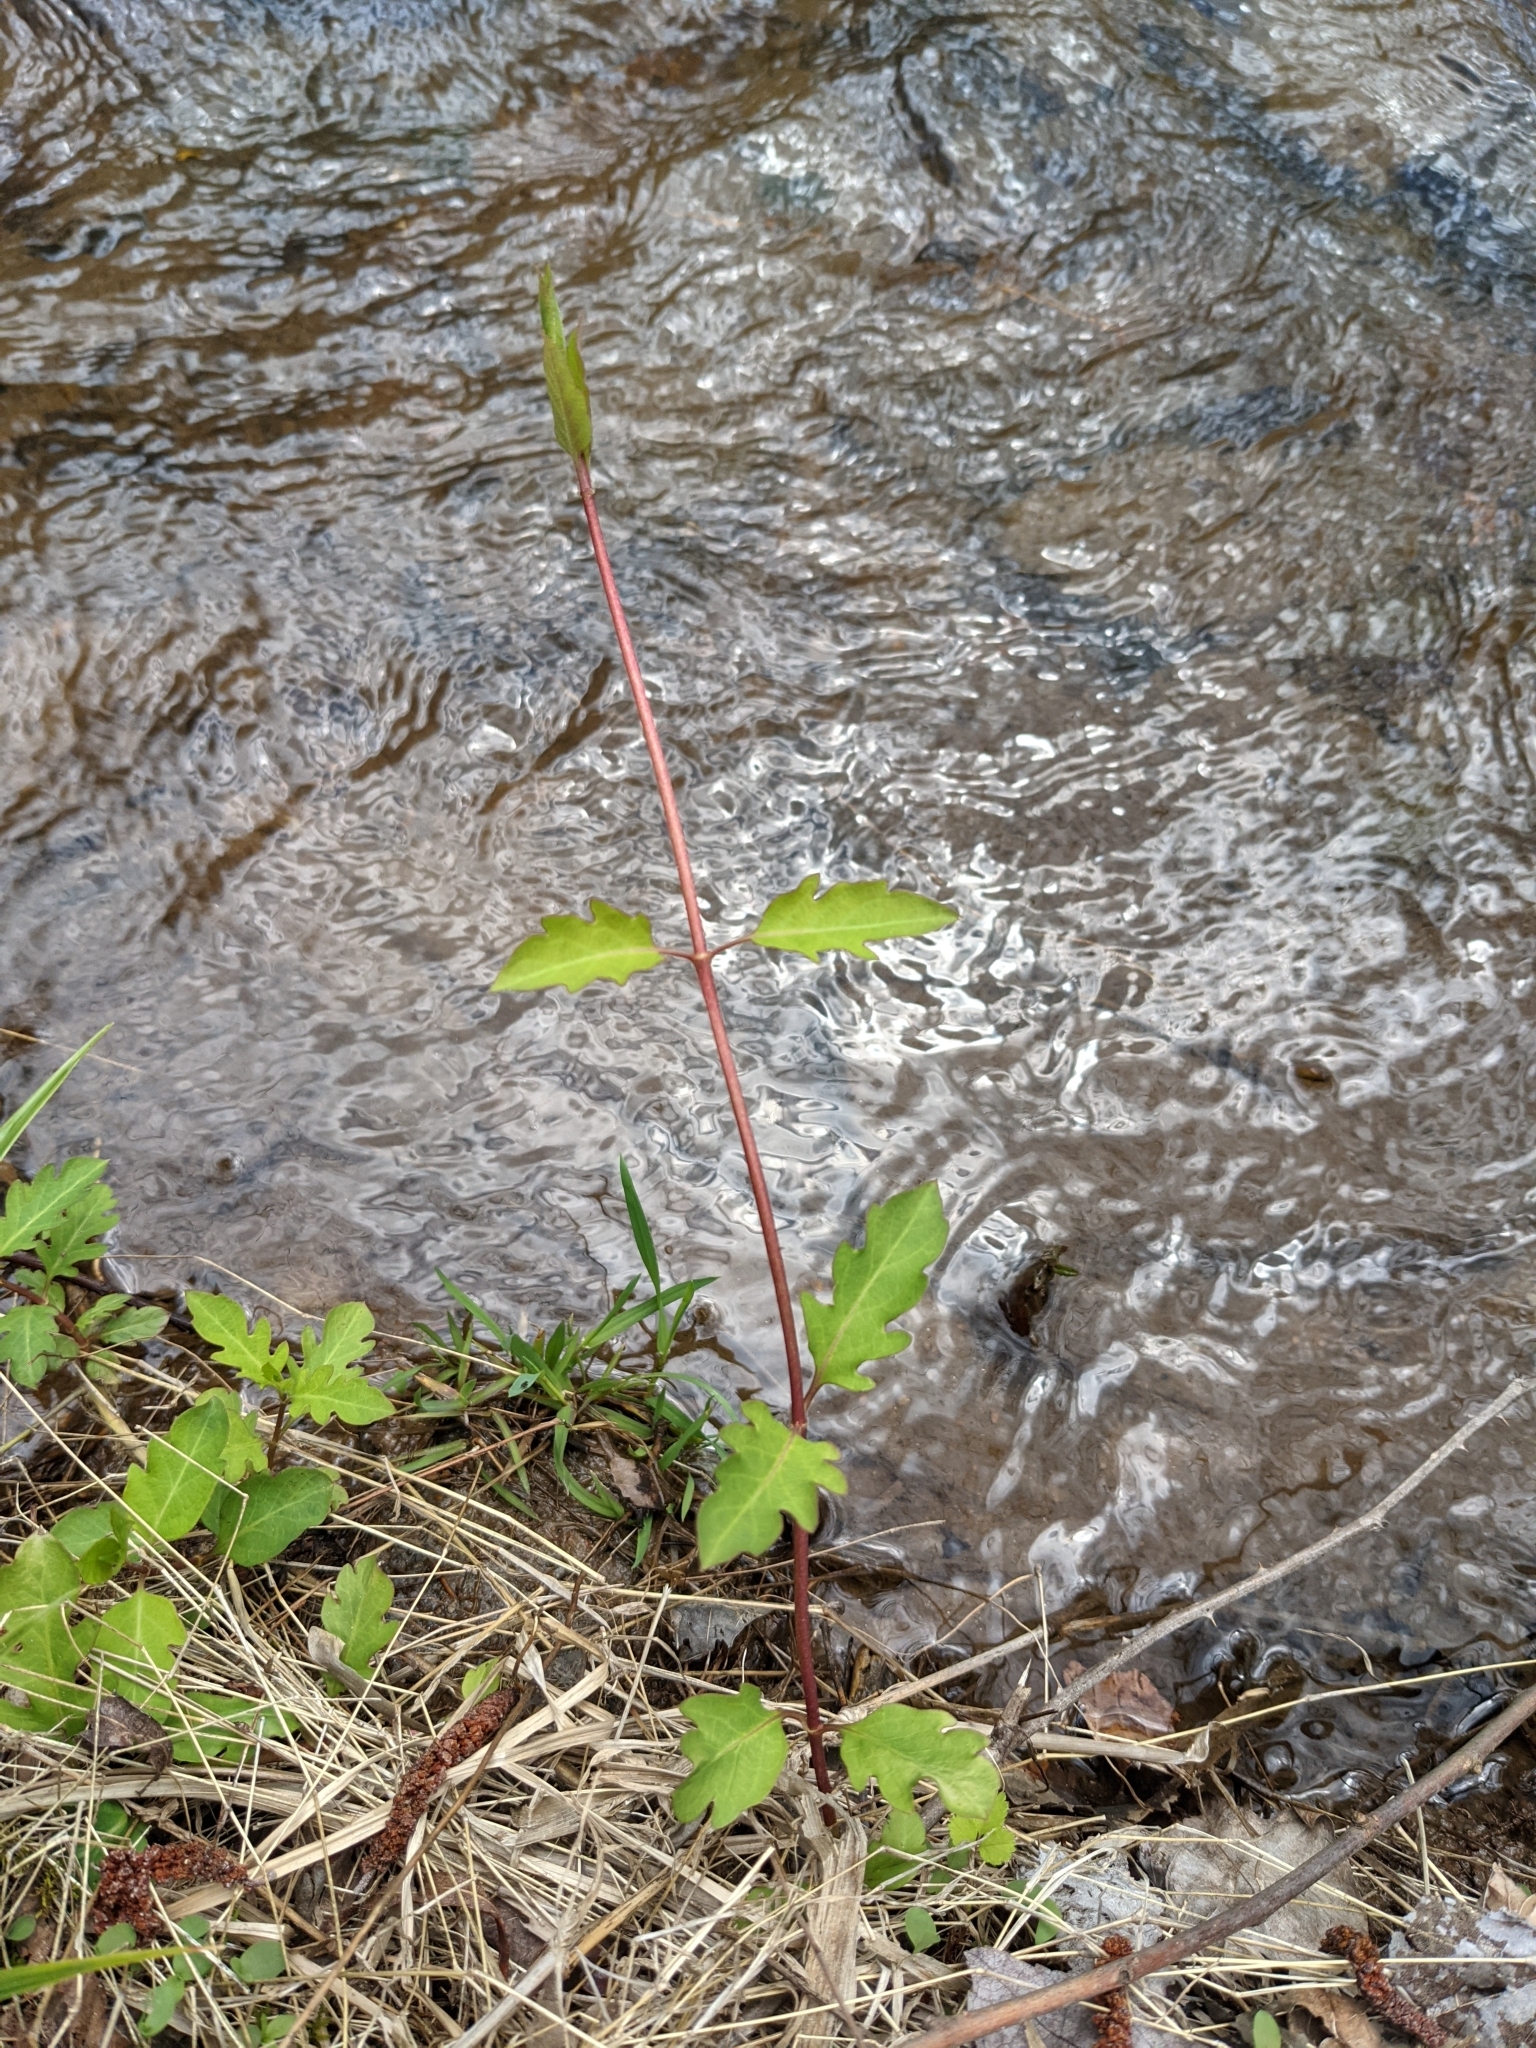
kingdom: Plantae
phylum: Tracheophyta
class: Magnoliopsida
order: Dipsacales
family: Caprifoliaceae
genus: Lonicera
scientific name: Lonicera japonica
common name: Japanese honeysuckle
